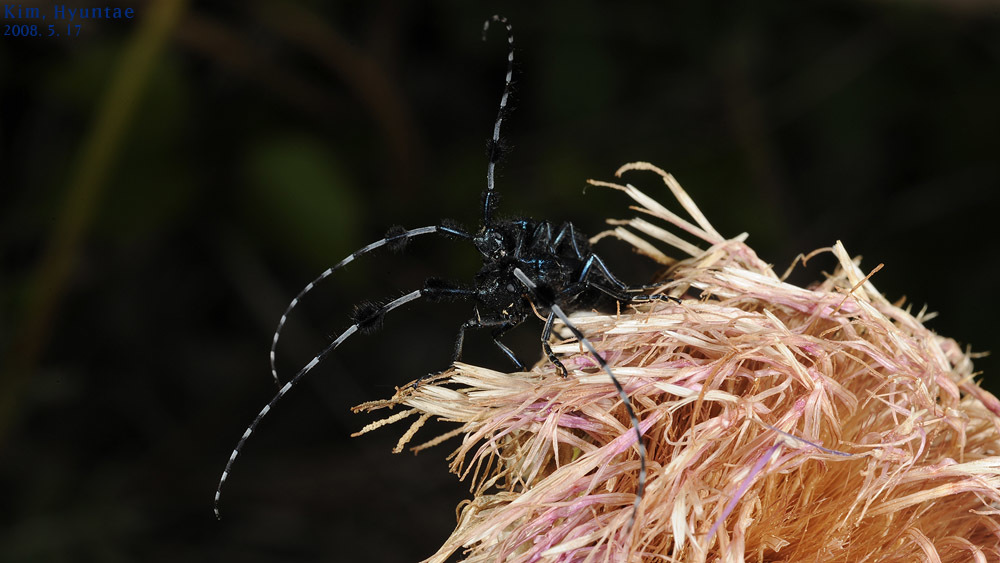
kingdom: Animalia
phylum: Arthropoda
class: Insecta
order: Coleoptera
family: Cerambycidae
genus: Agapanthia
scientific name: Agapanthia amurensis
